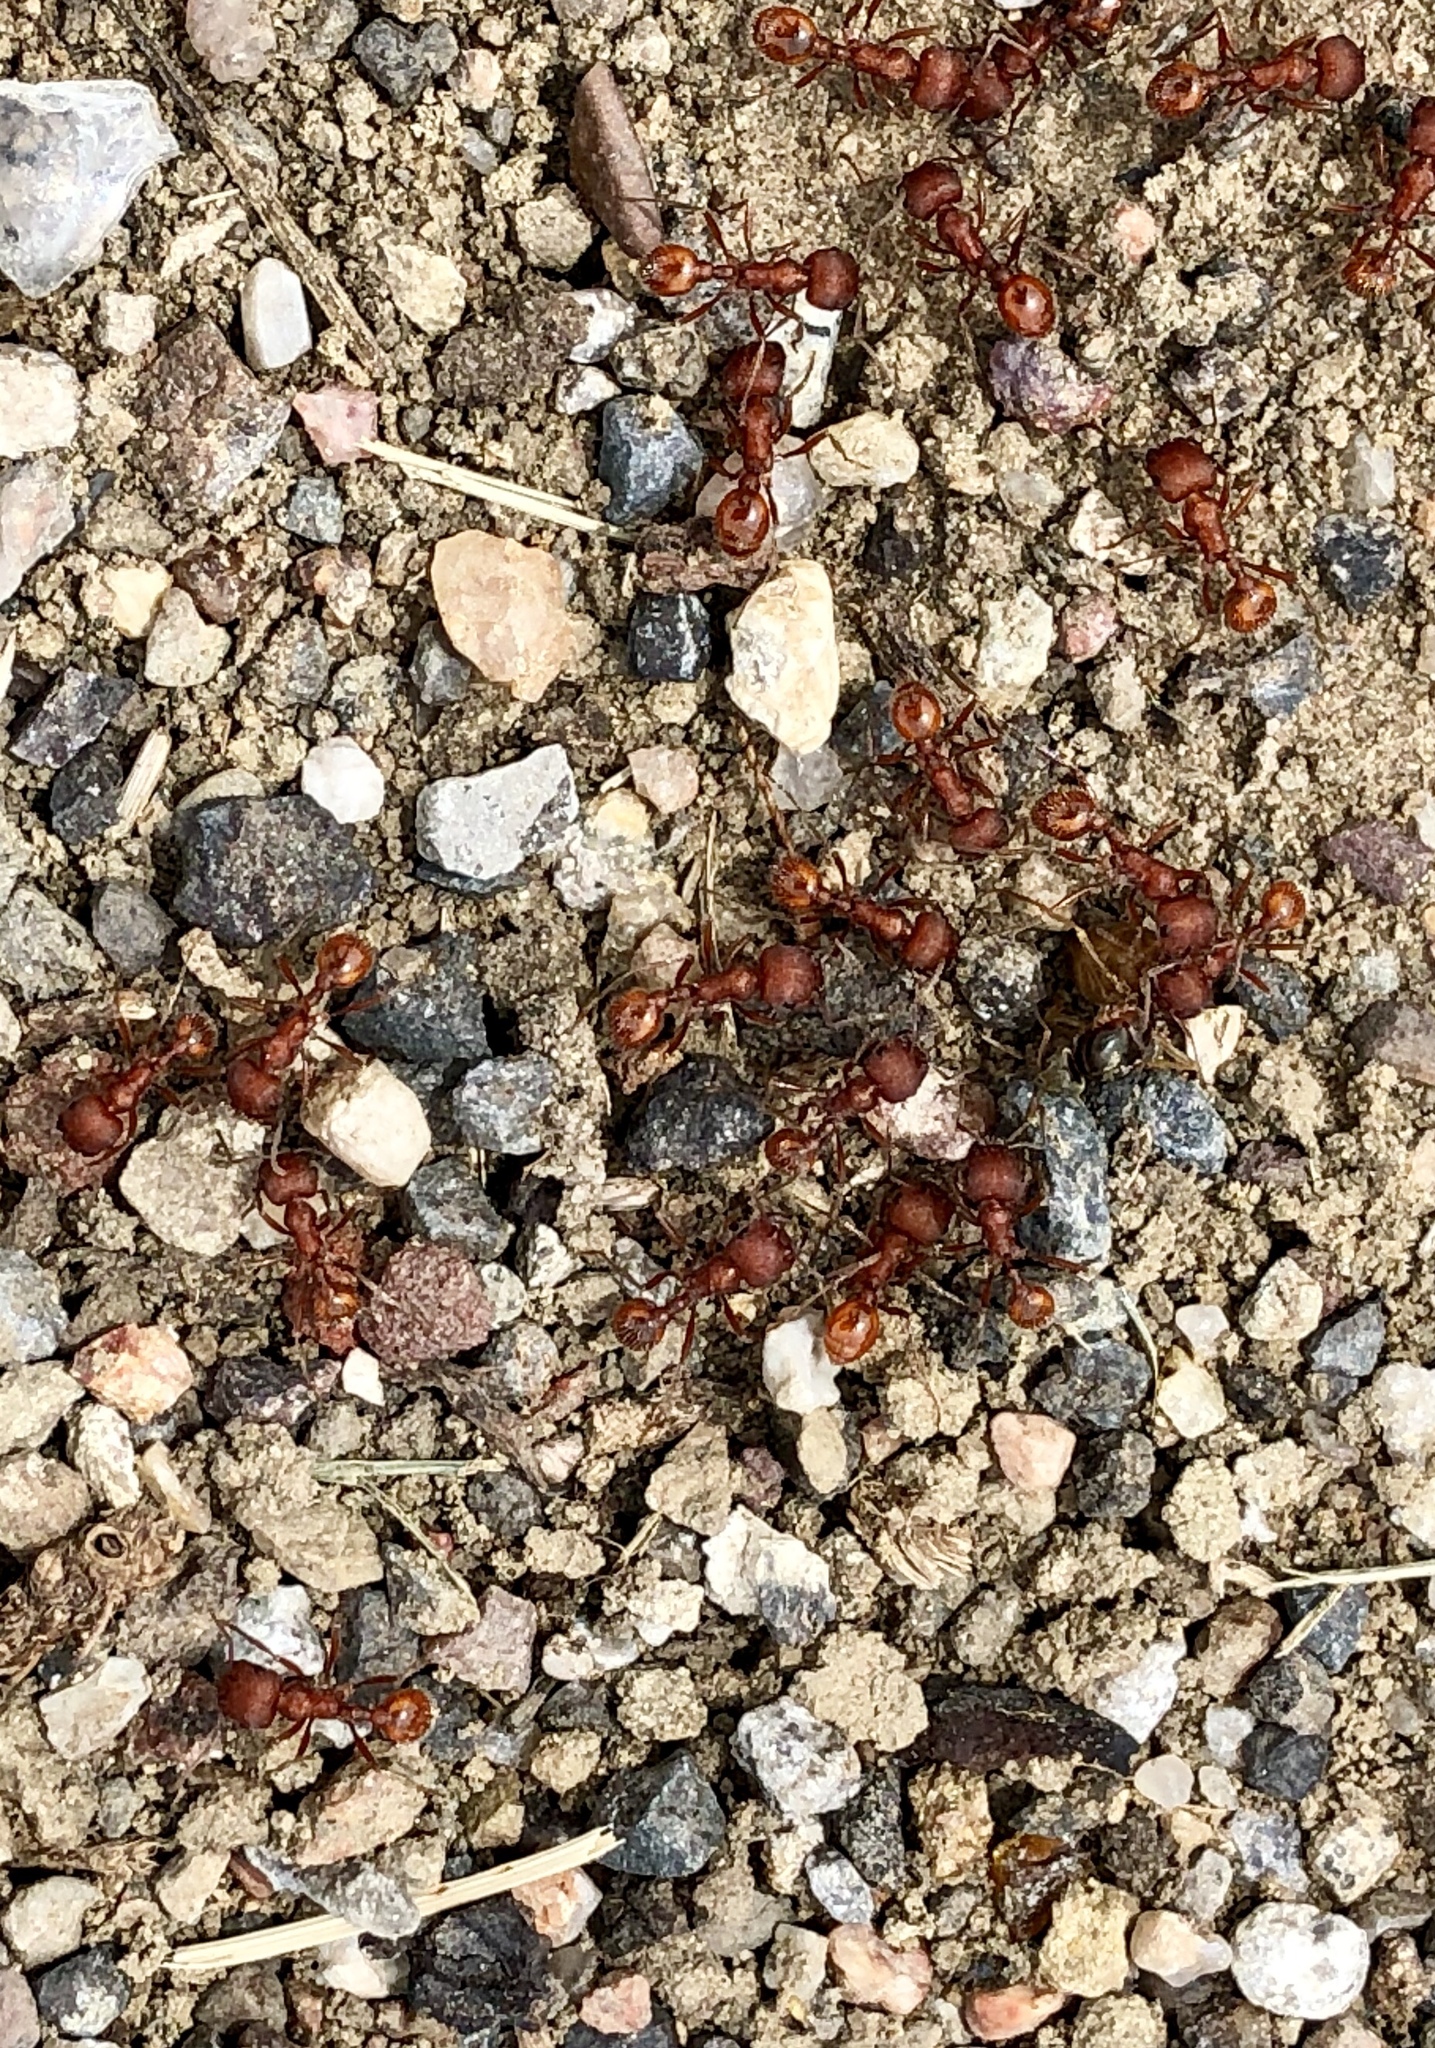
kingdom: Animalia
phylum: Arthropoda
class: Insecta
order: Hymenoptera
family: Formicidae
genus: Pogonomyrmex
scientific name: Pogonomyrmex occidentalis
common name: Western harvester ant
